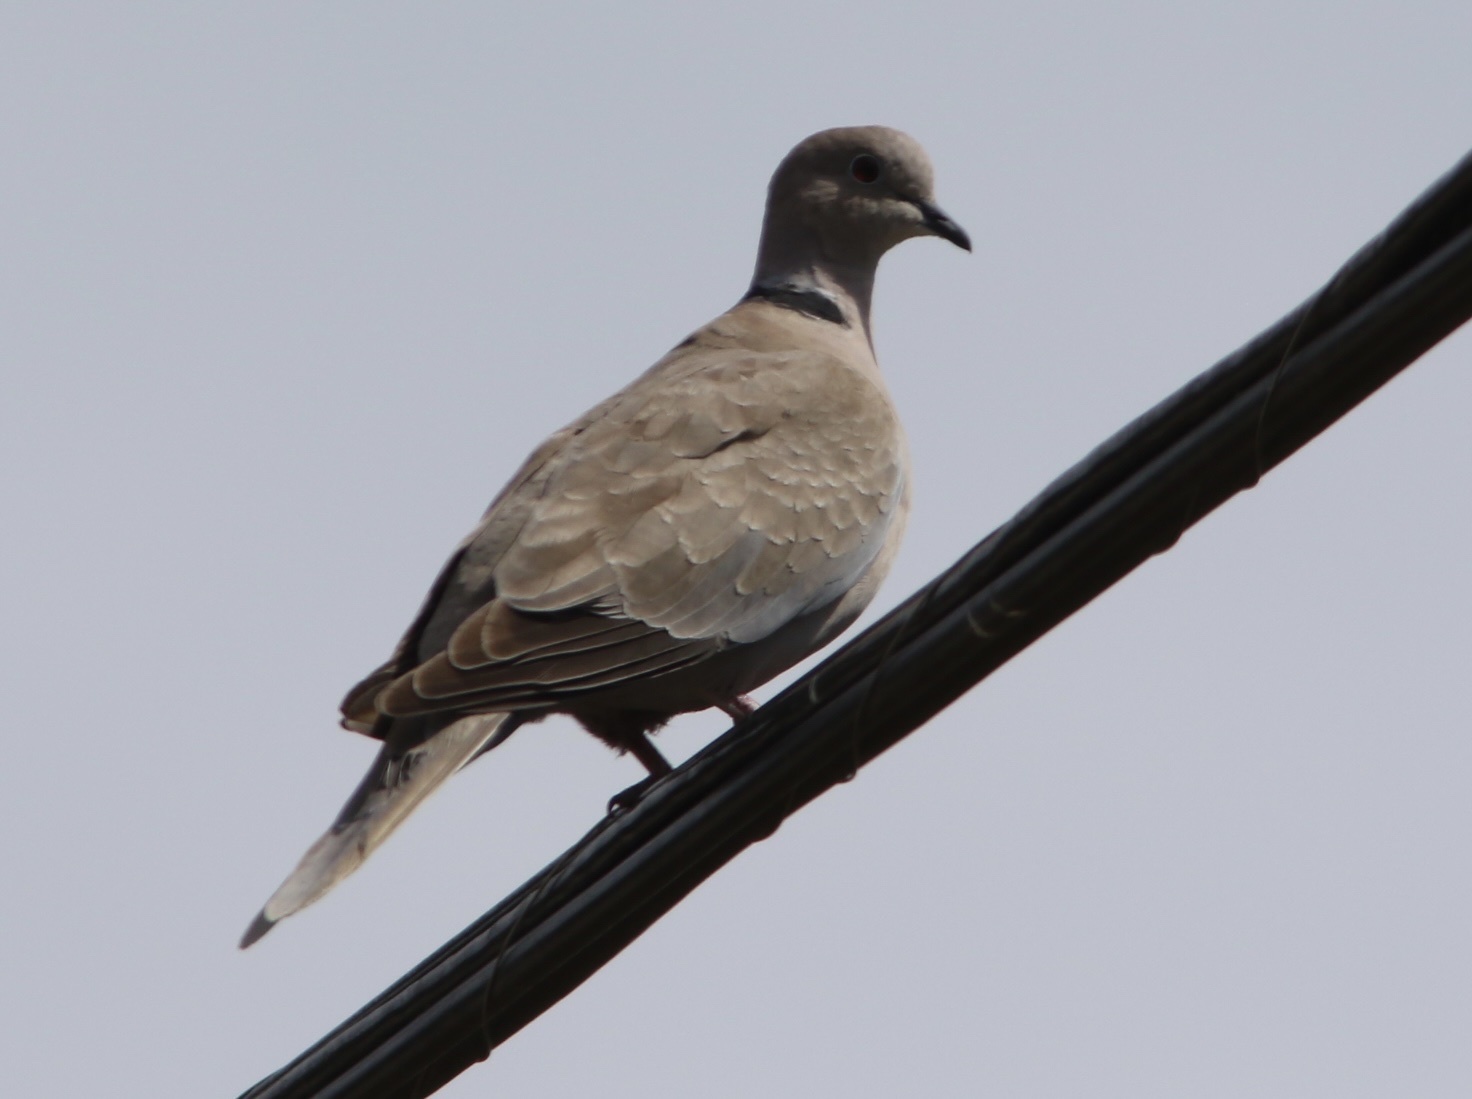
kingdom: Animalia
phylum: Chordata
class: Aves
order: Columbiformes
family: Columbidae
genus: Streptopelia
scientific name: Streptopelia decaocto
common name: Eurasian collared dove
